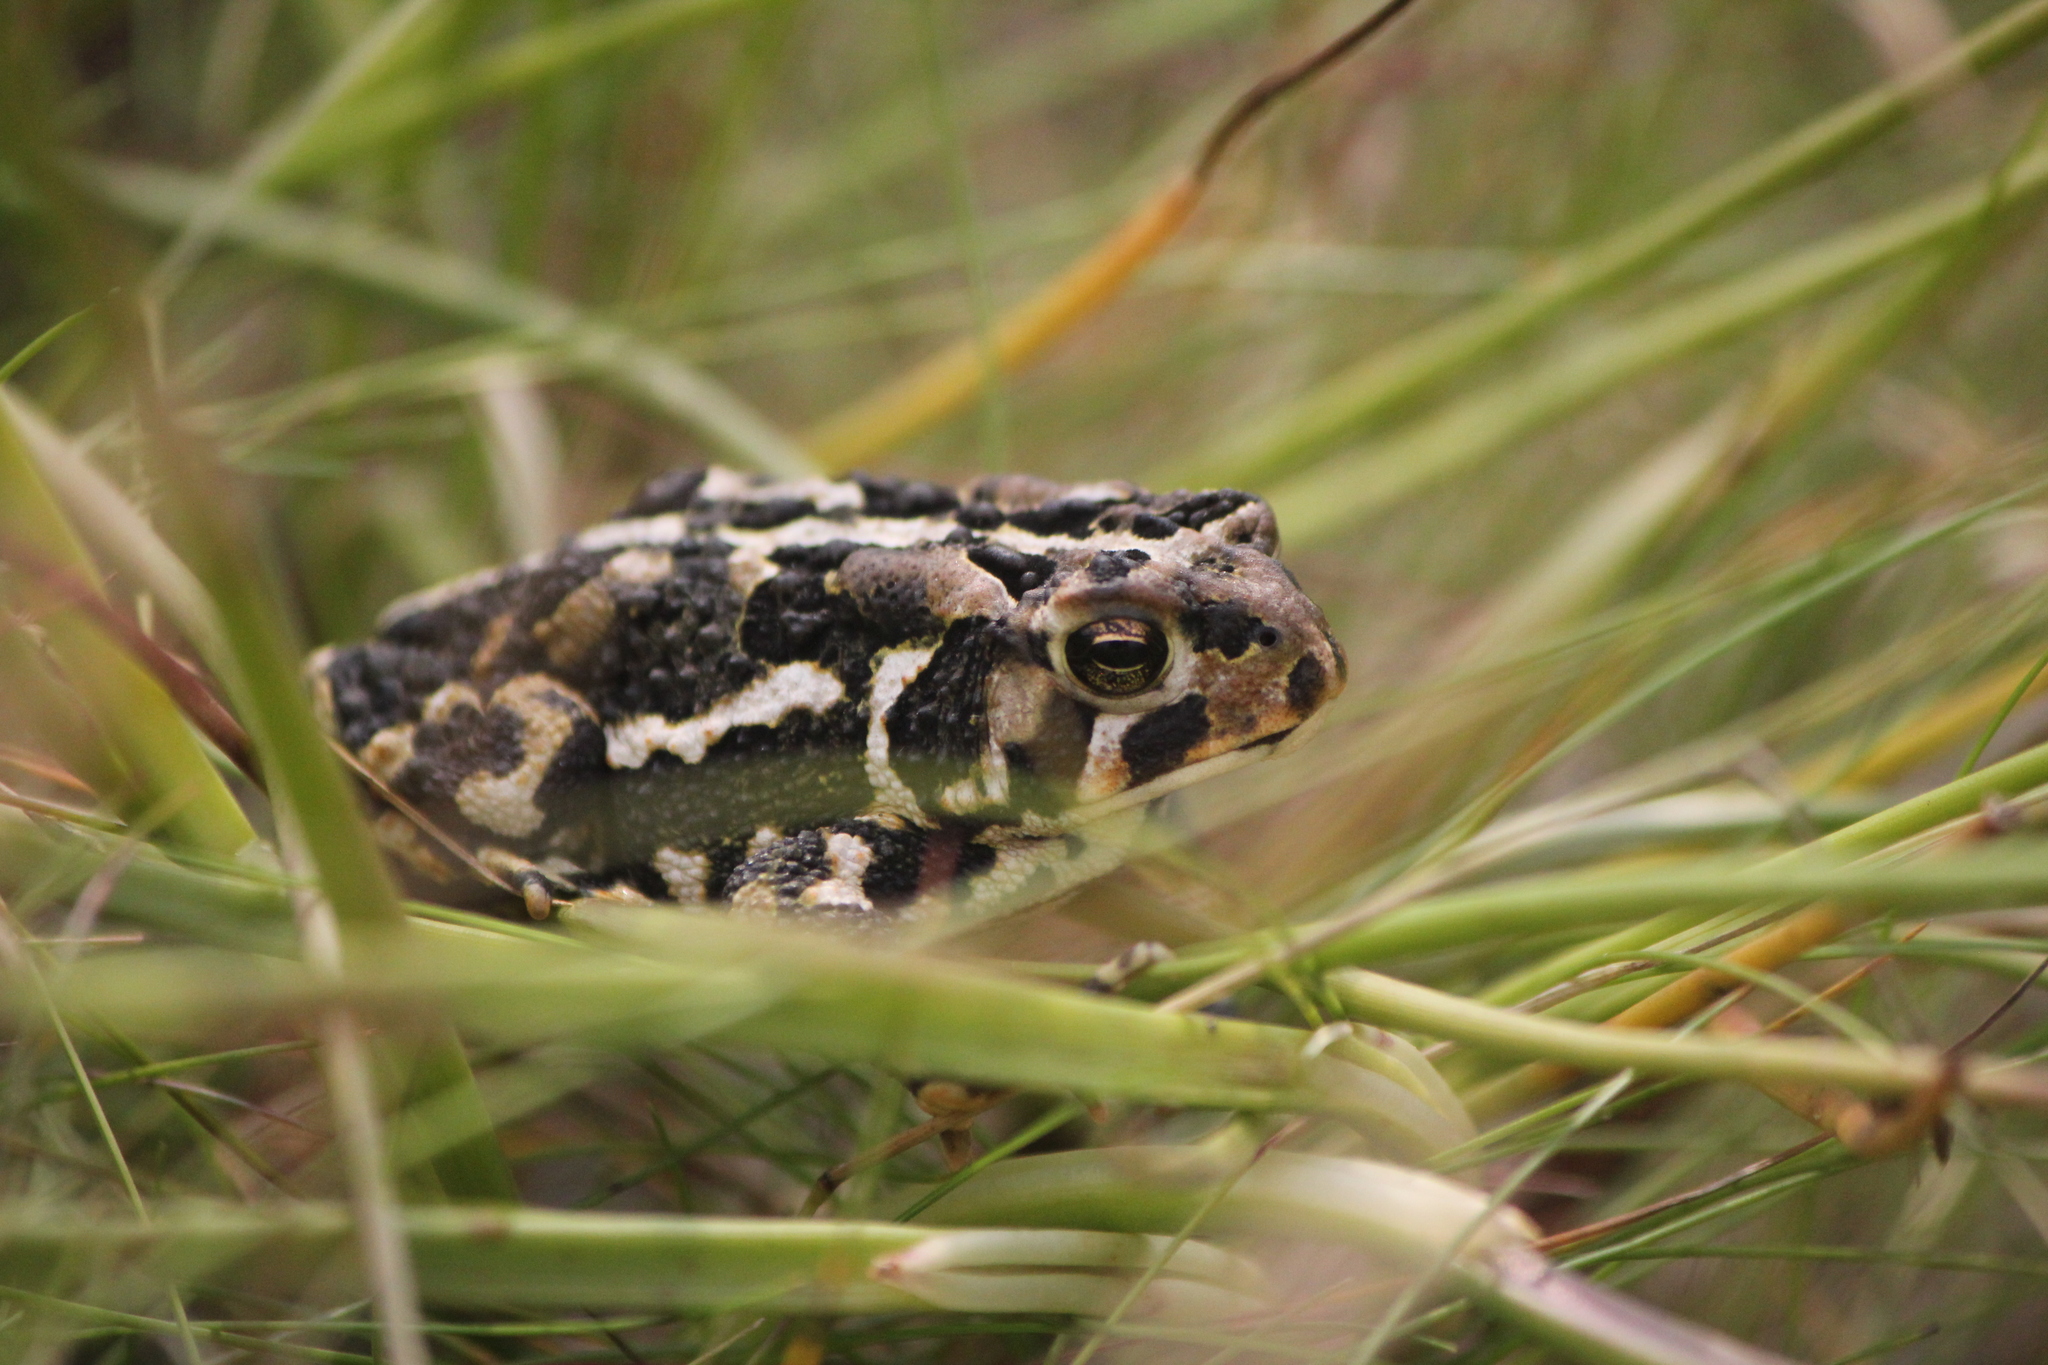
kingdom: Animalia
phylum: Chordata
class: Amphibia
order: Anura
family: Bufonidae
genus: Anaxyrus
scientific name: Anaxyrus americanus
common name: American toad
